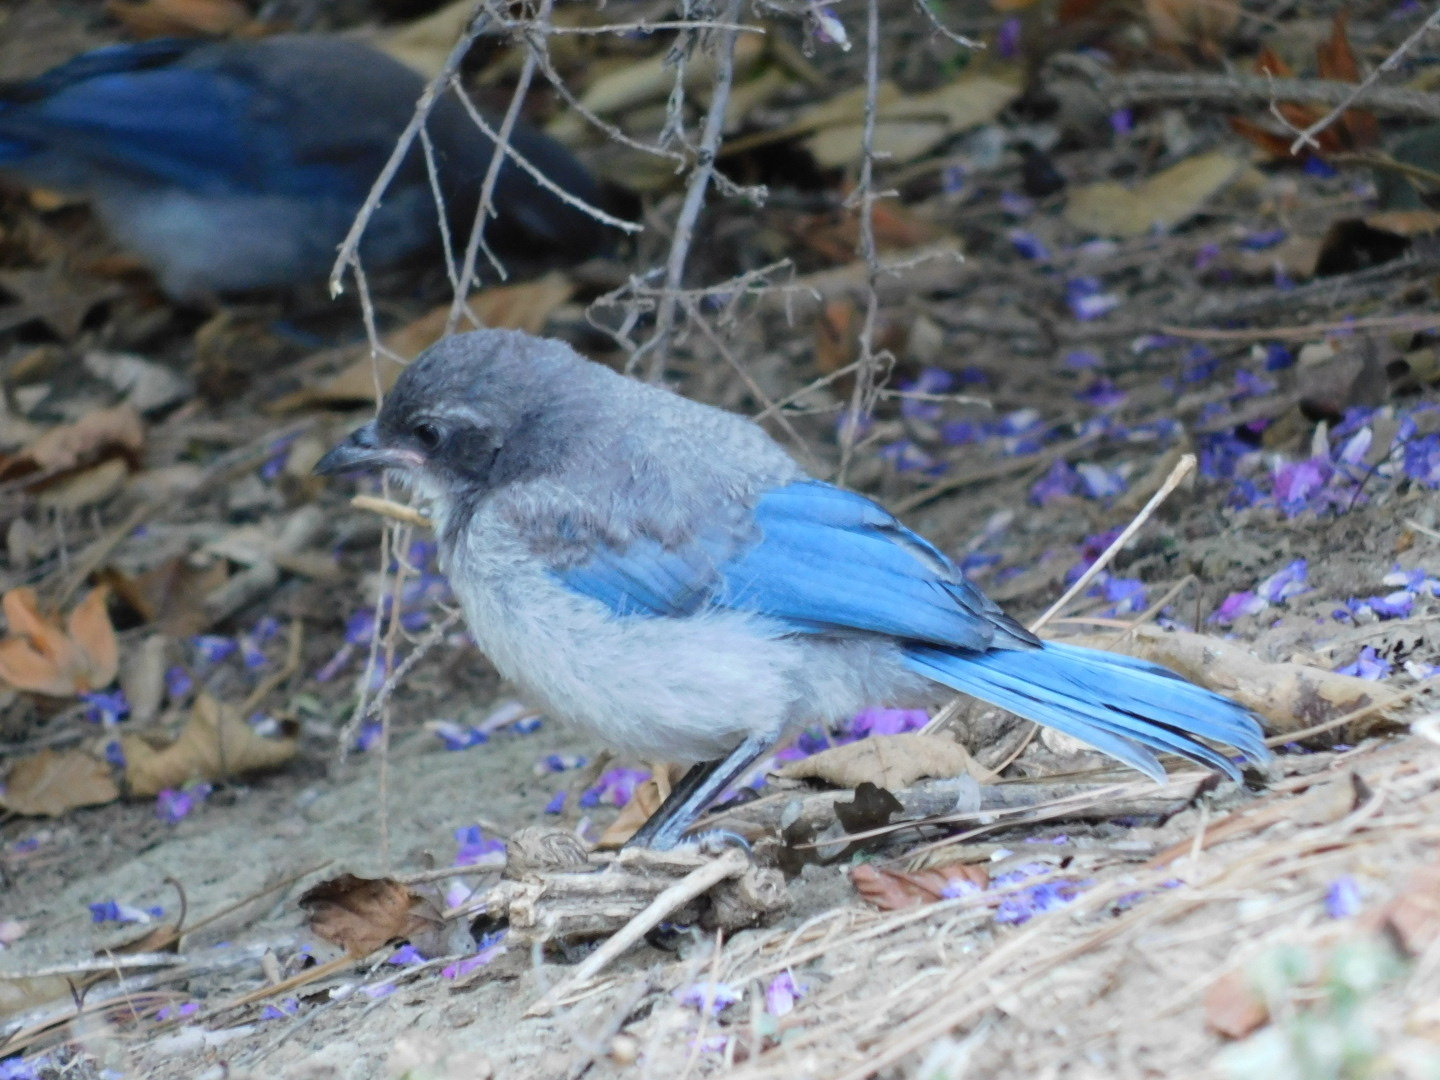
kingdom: Animalia
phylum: Chordata
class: Aves
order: Passeriformes
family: Corvidae
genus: Aphelocoma
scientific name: Aphelocoma californica
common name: California scrub-jay
